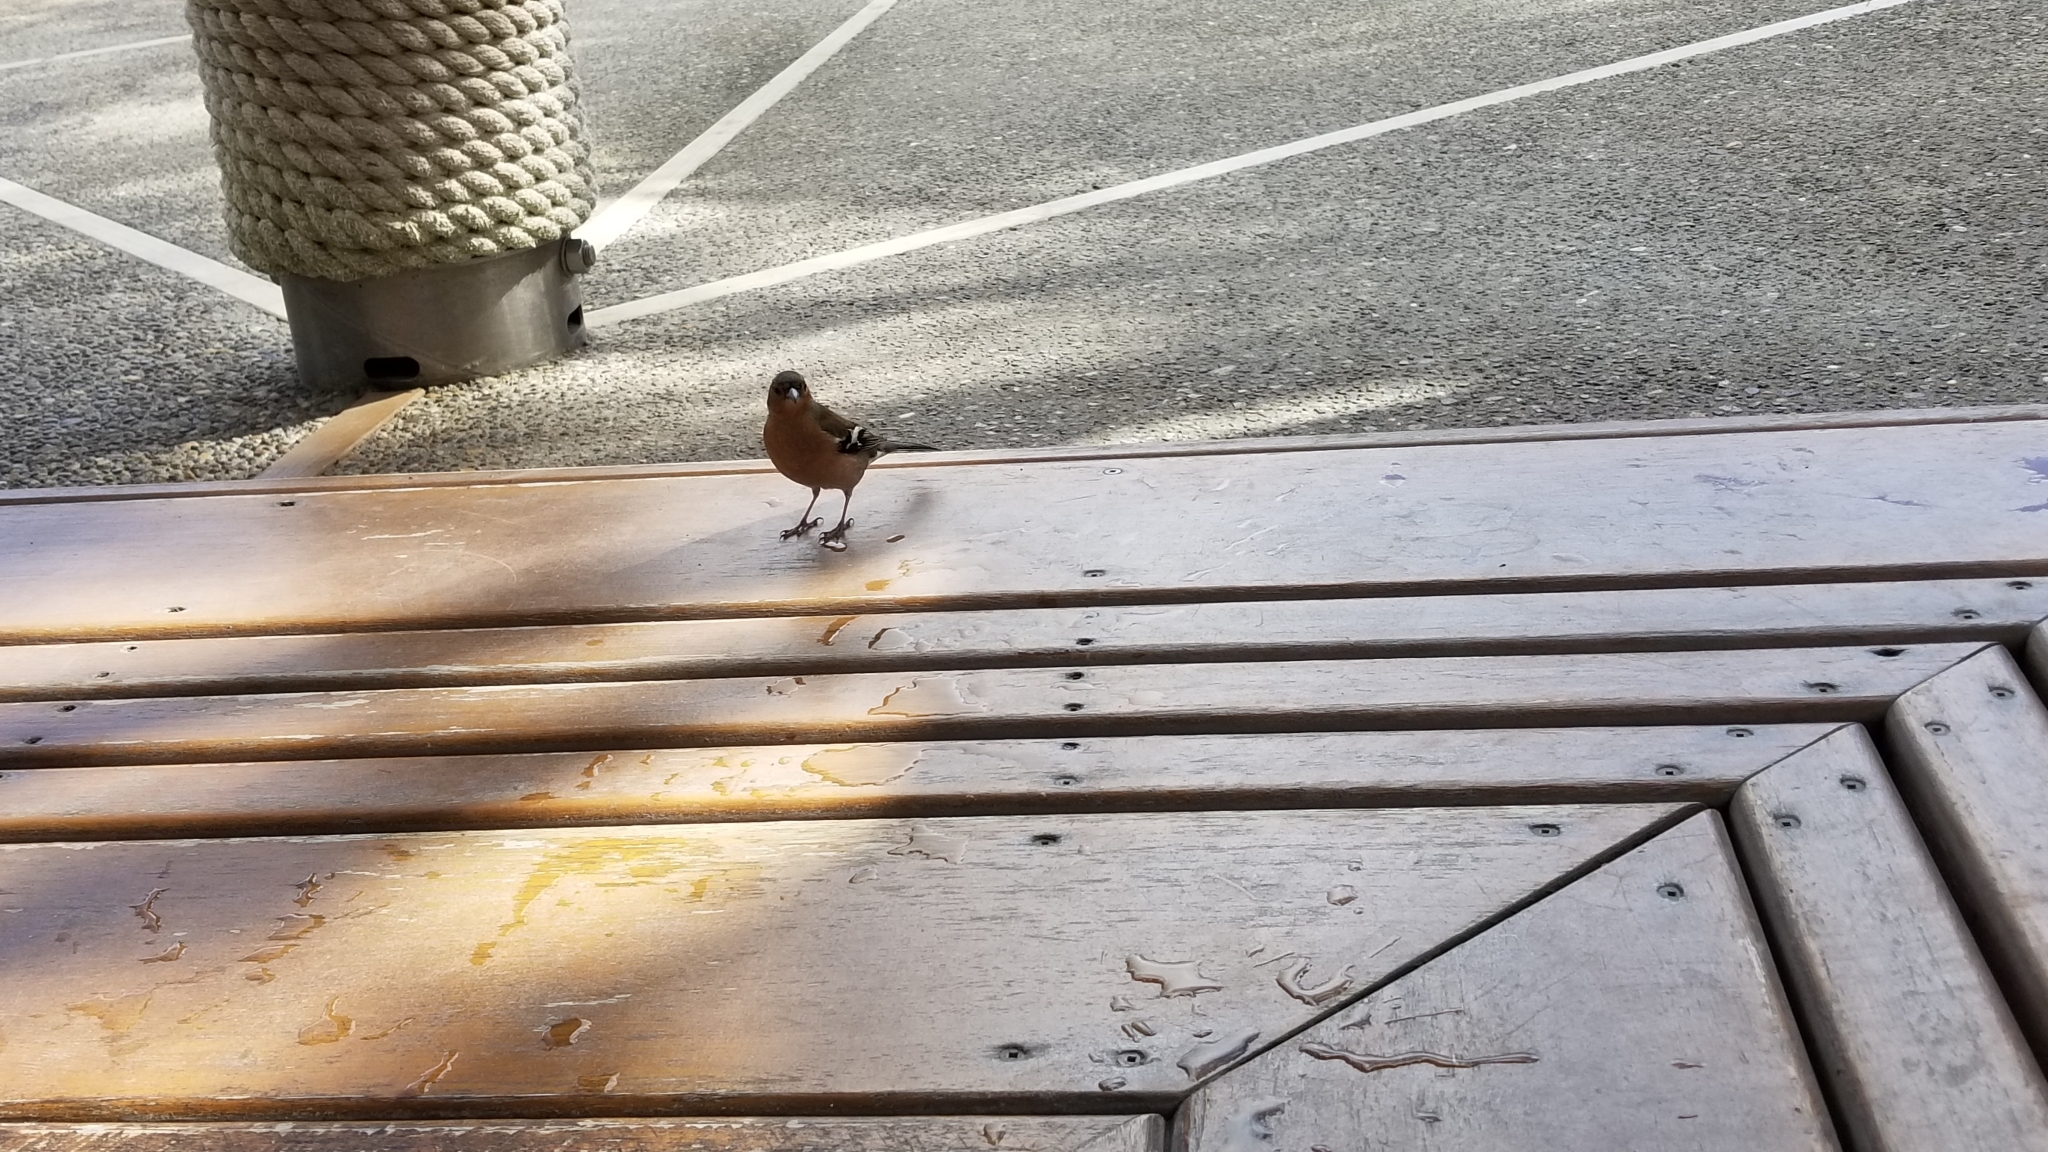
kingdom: Animalia
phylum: Chordata
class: Aves
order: Passeriformes
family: Fringillidae
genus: Fringilla
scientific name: Fringilla coelebs
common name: Common chaffinch
